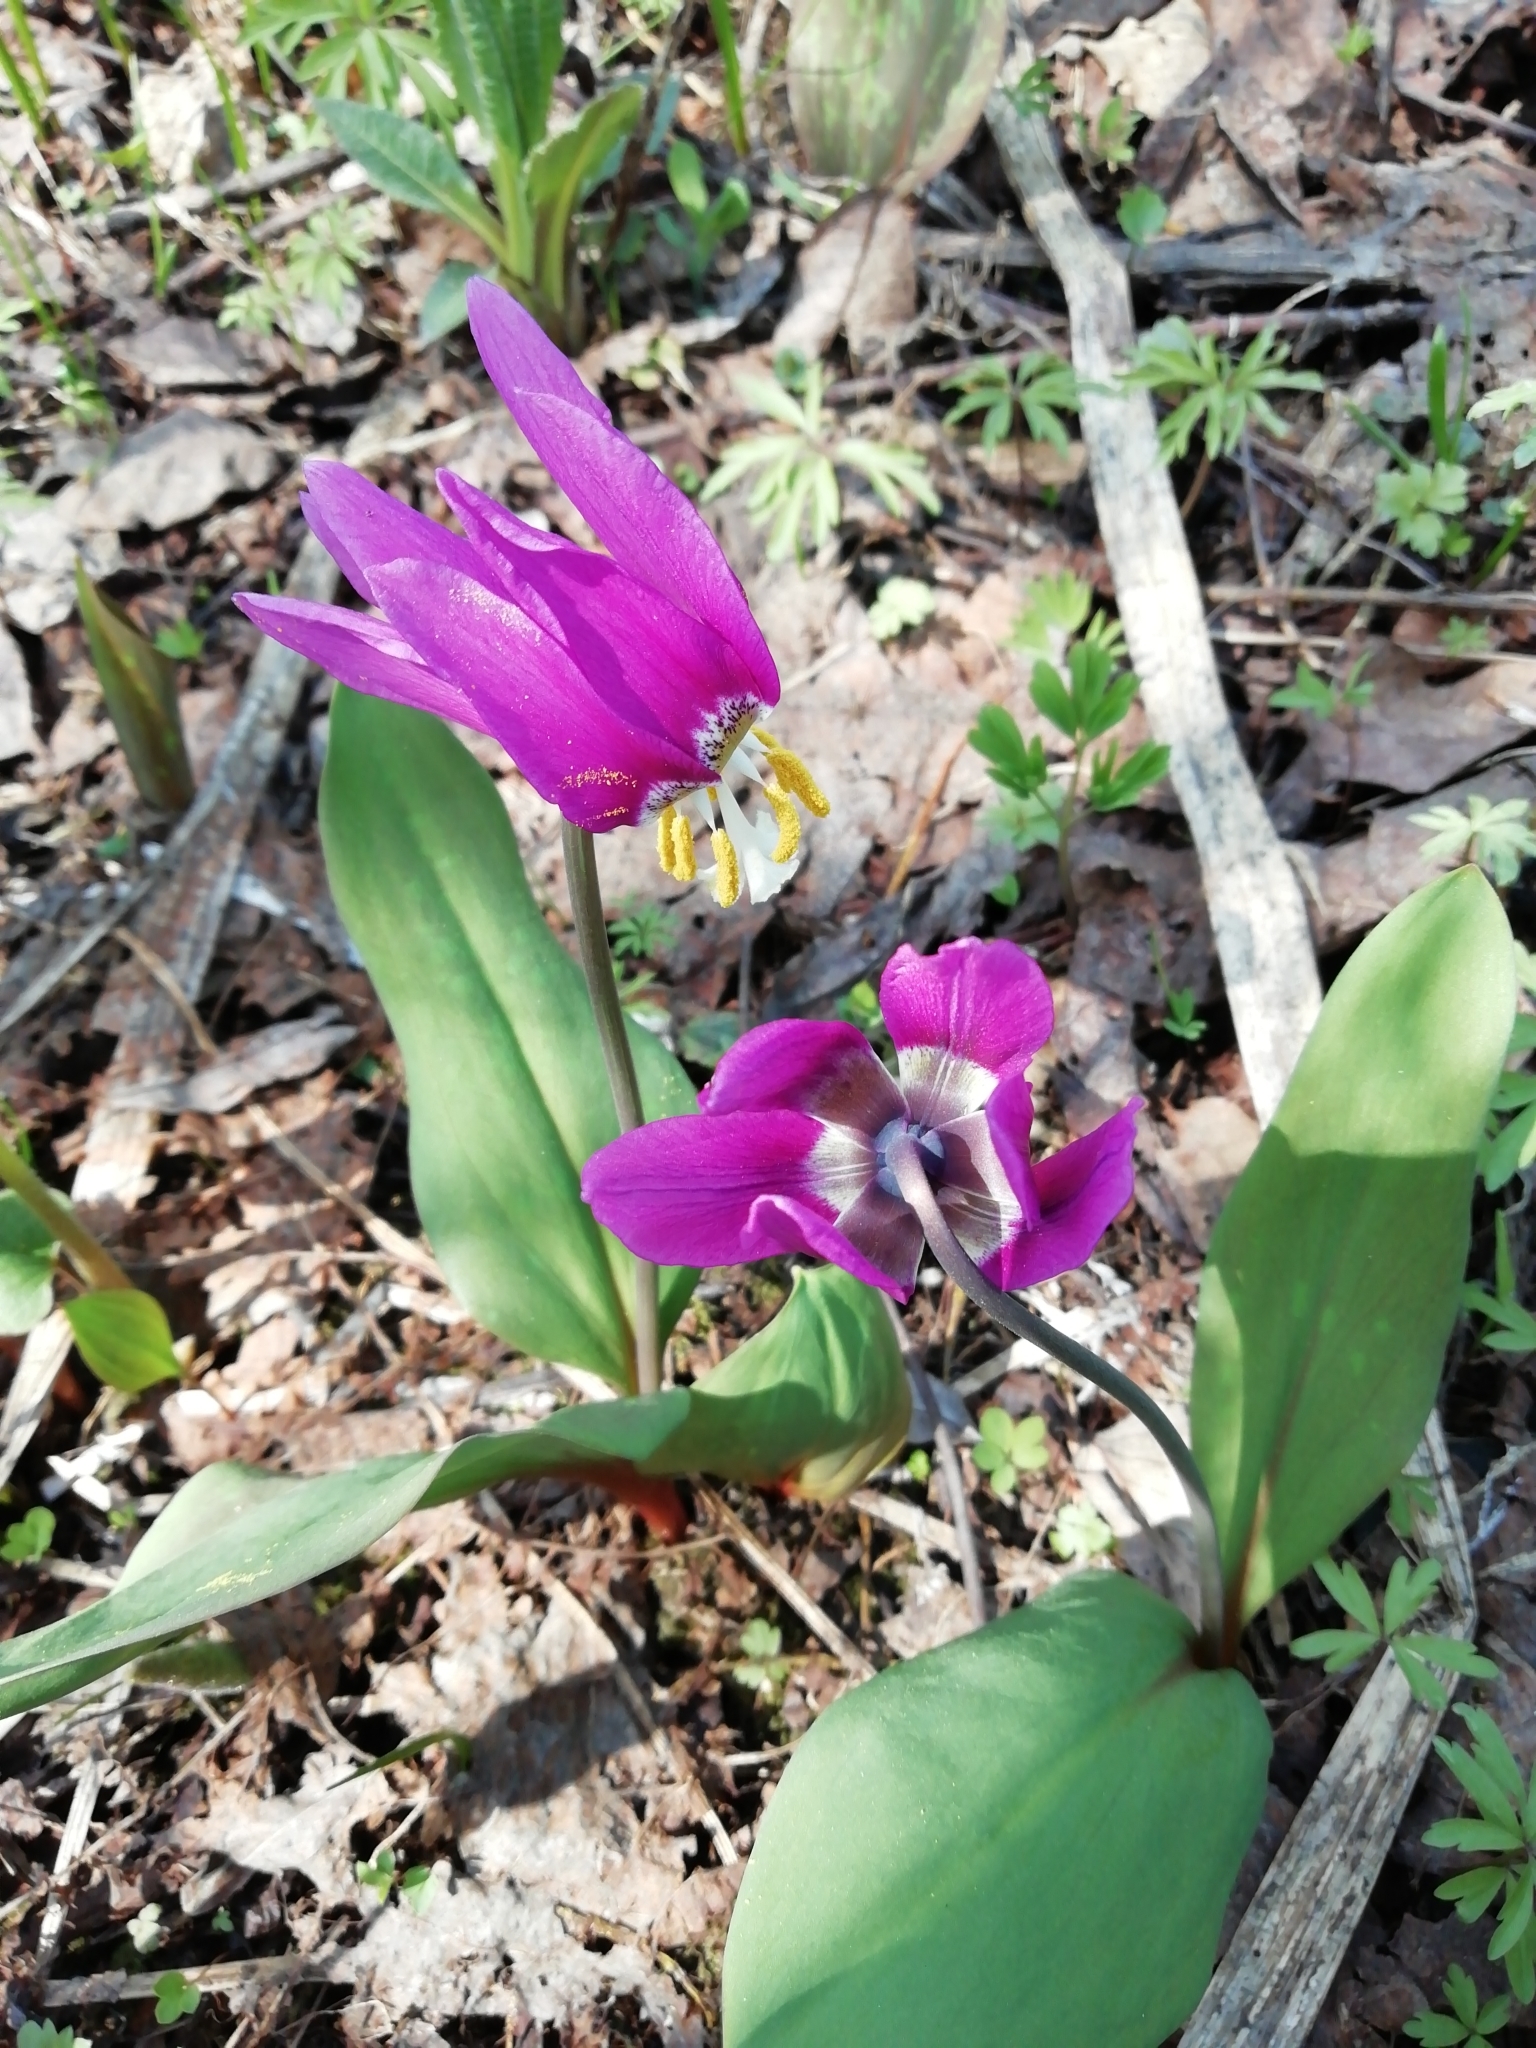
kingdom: Plantae
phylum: Tracheophyta
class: Liliopsida
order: Liliales
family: Liliaceae
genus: Erythronium
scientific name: Erythronium sibiricum
